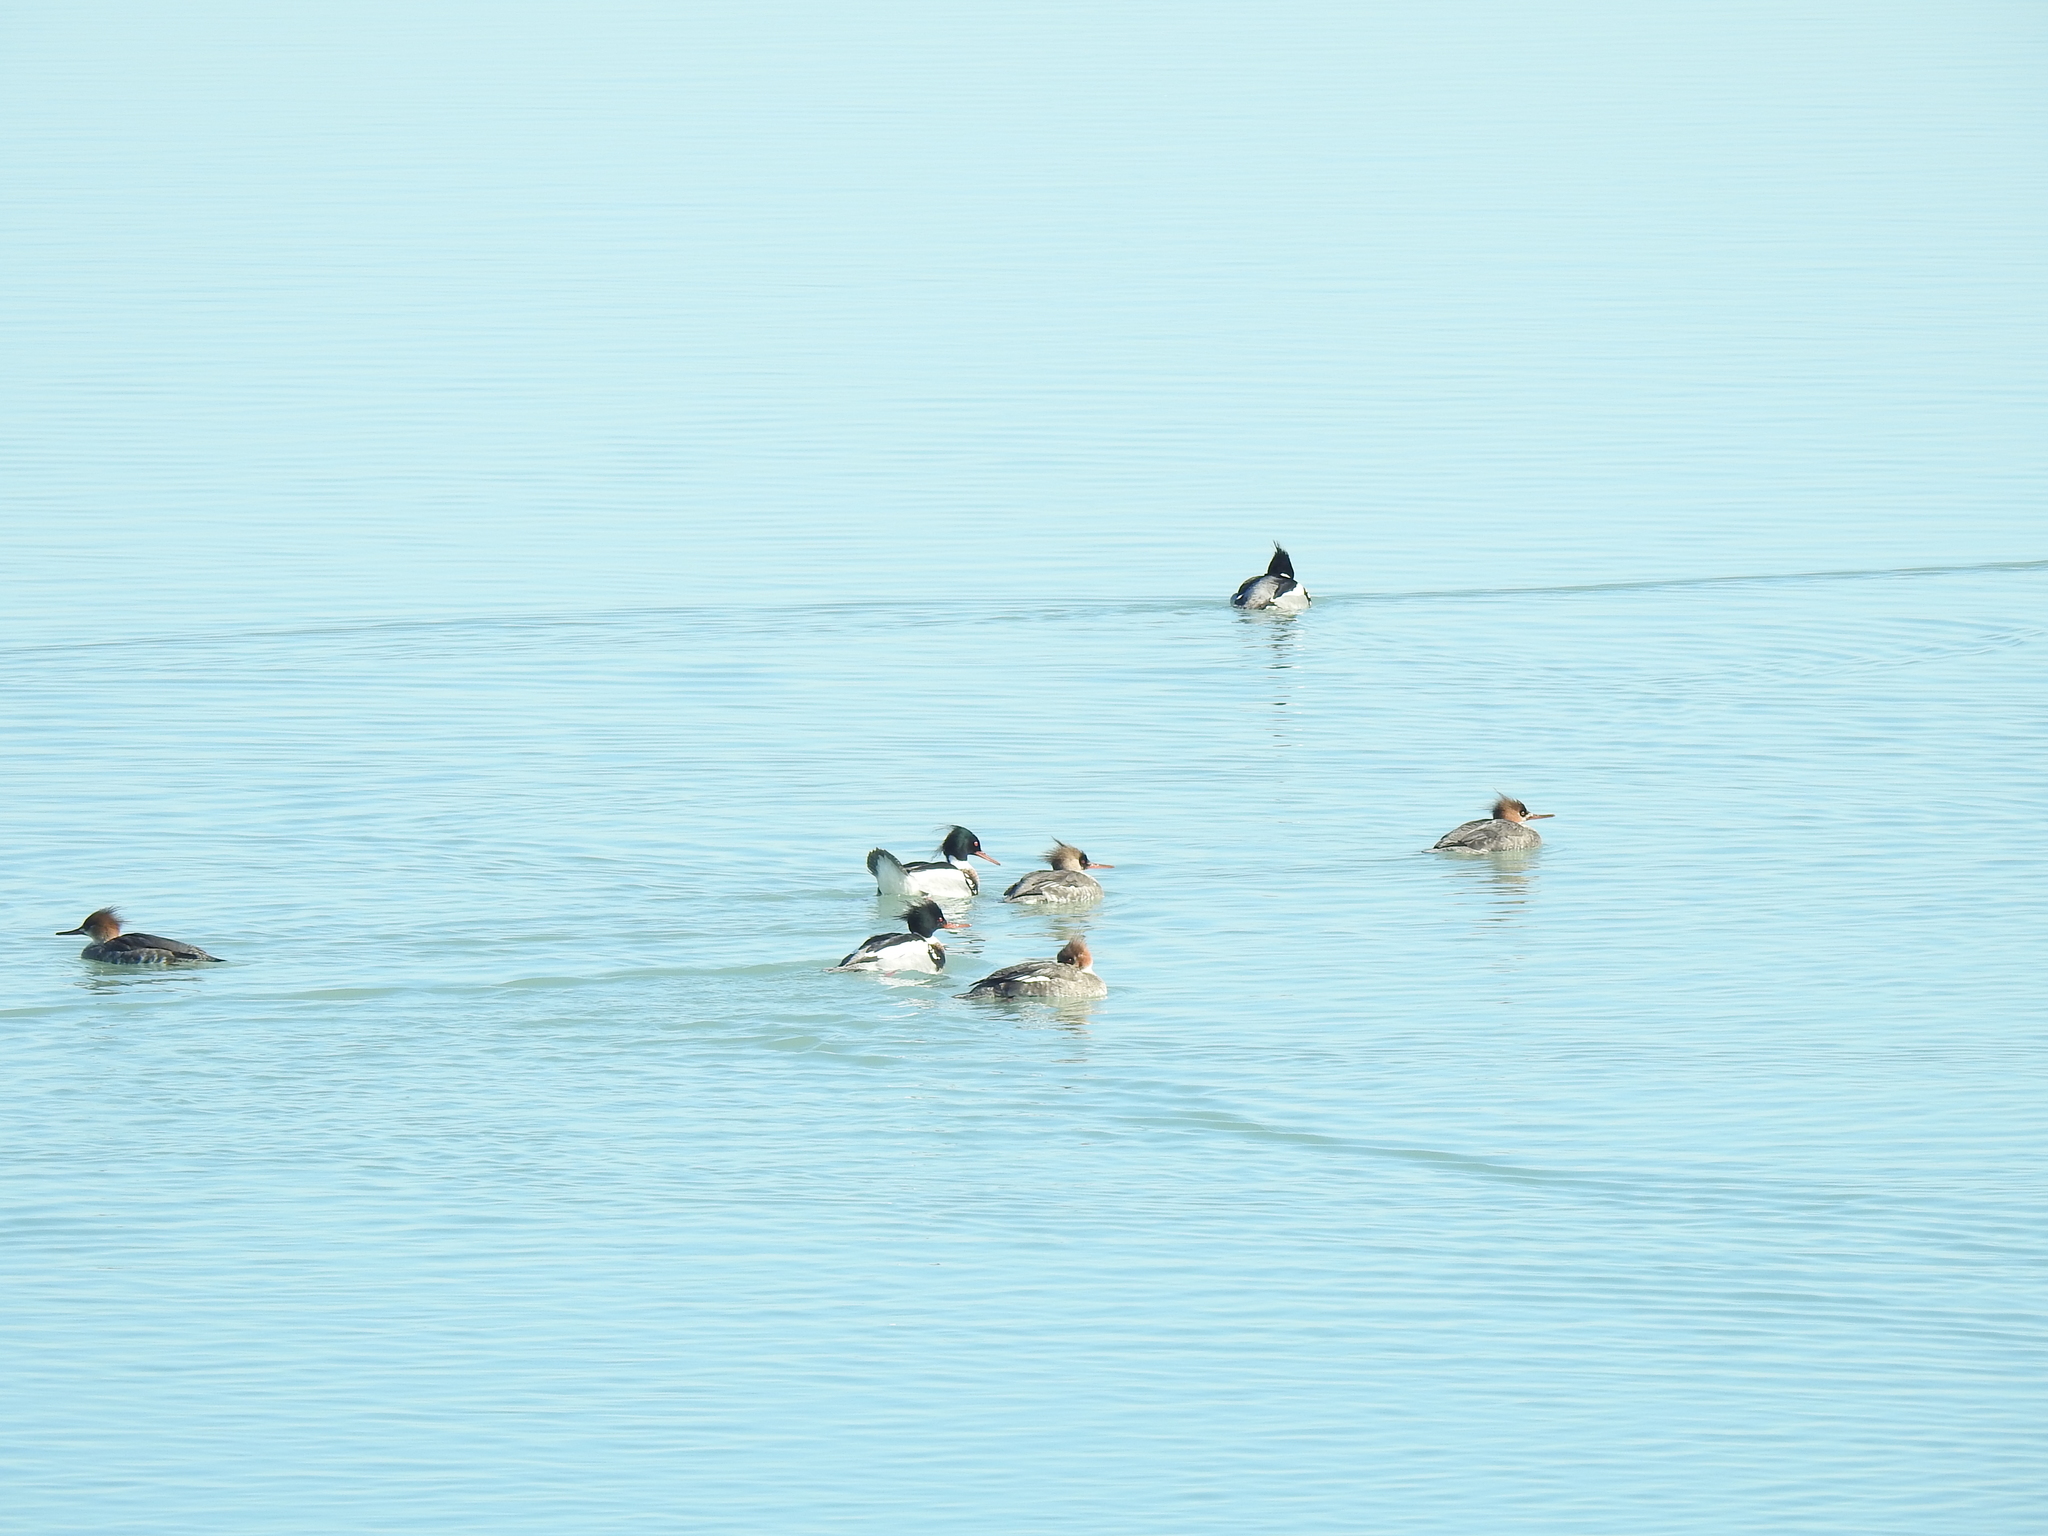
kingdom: Animalia
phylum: Chordata
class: Aves
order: Anseriformes
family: Anatidae
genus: Mergus
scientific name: Mergus serrator
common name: Red-breasted merganser
